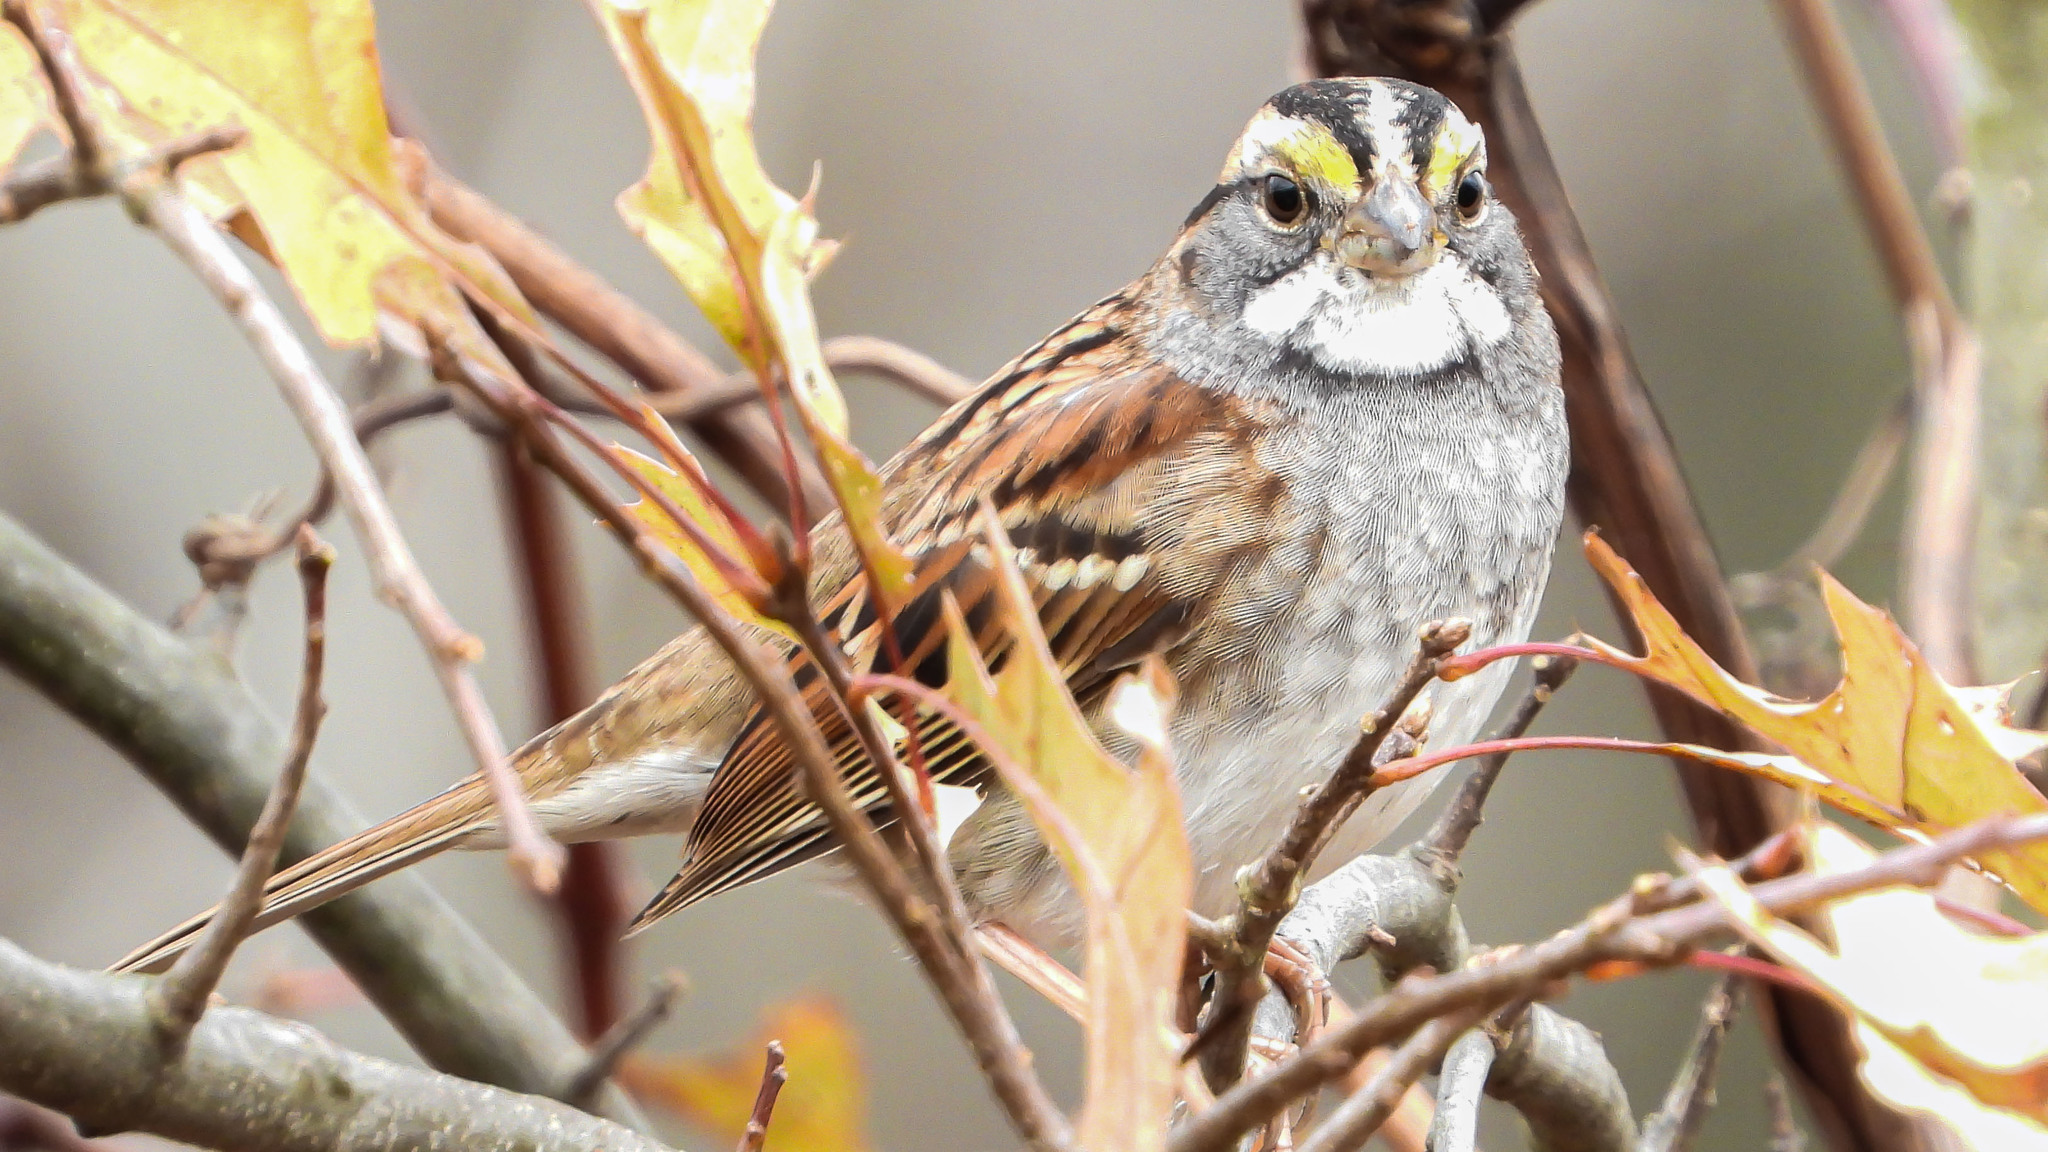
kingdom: Animalia
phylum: Chordata
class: Aves
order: Passeriformes
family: Passerellidae
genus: Zonotrichia
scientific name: Zonotrichia albicollis
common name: White-throated sparrow
